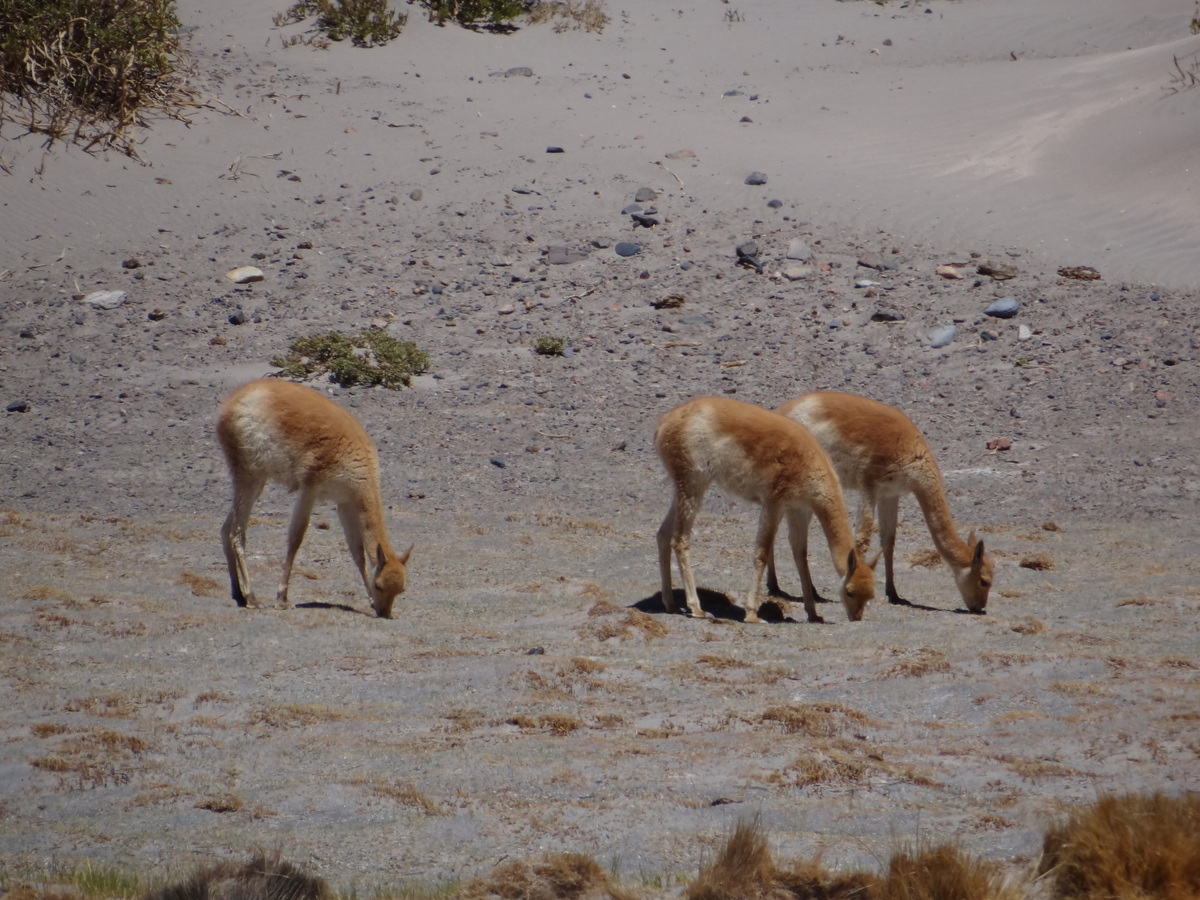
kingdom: Animalia
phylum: Chordata
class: Mammalia
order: Artiodactyla
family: Camelidae
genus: Vicugna
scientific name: Vicugna vicugna
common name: Vicugna
